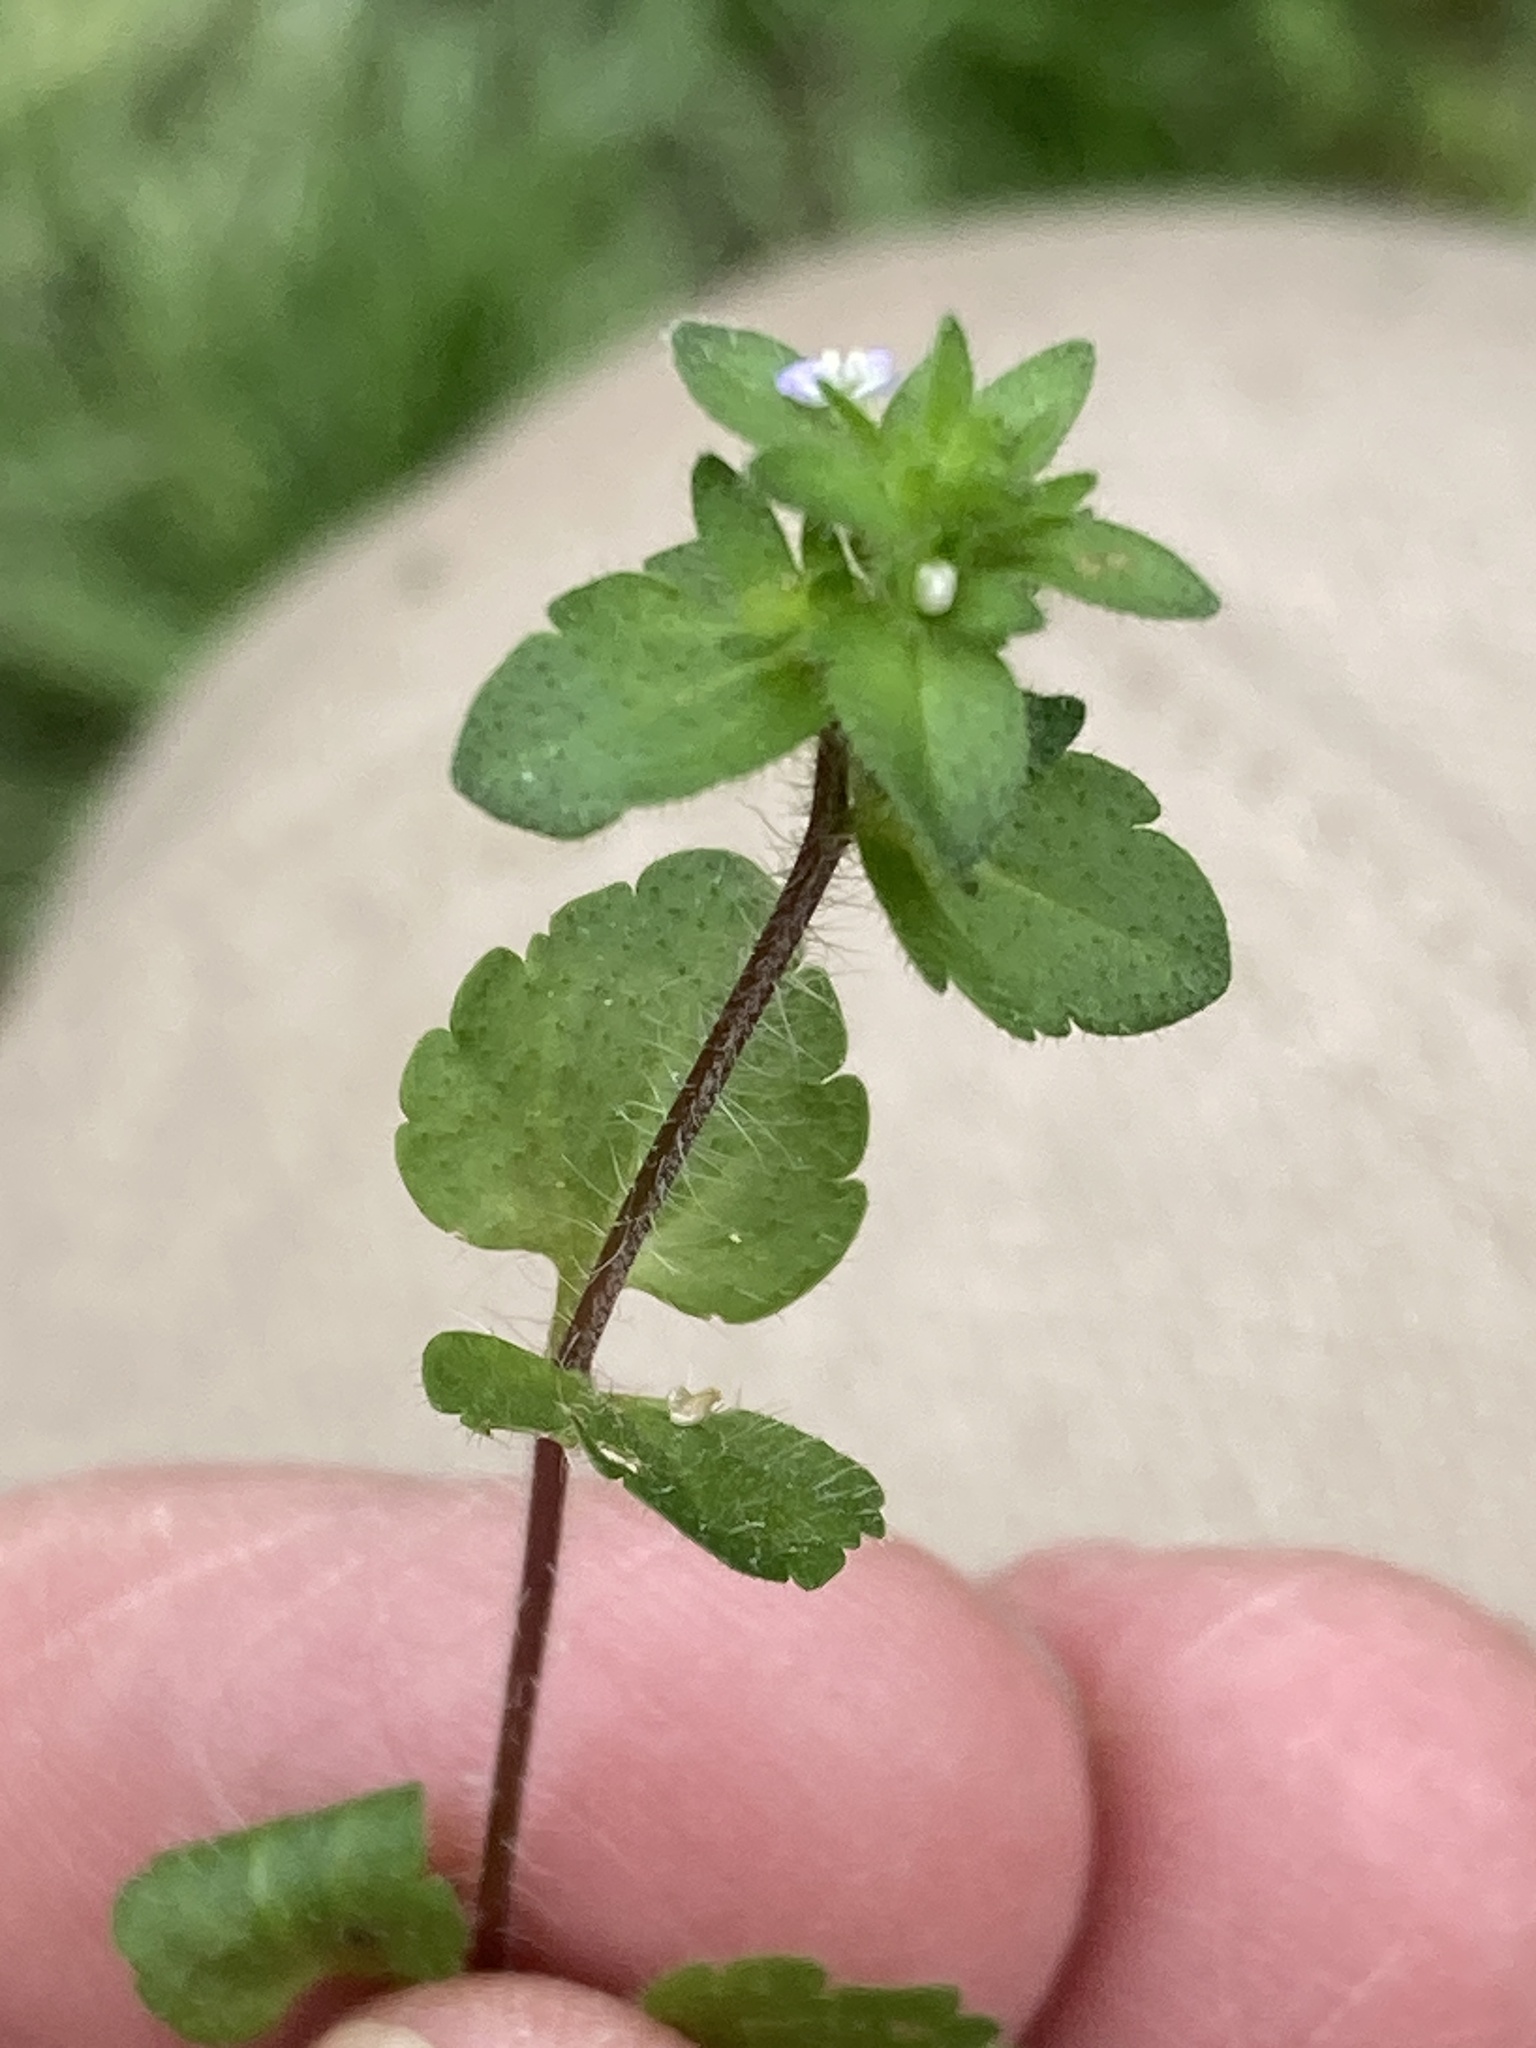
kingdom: Plantae
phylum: Tracheophyta
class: Magnoliopsida
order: Lamiales
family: Plantaginaceae
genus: Veronica
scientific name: Veronica arvensis
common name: Corn speedwell
